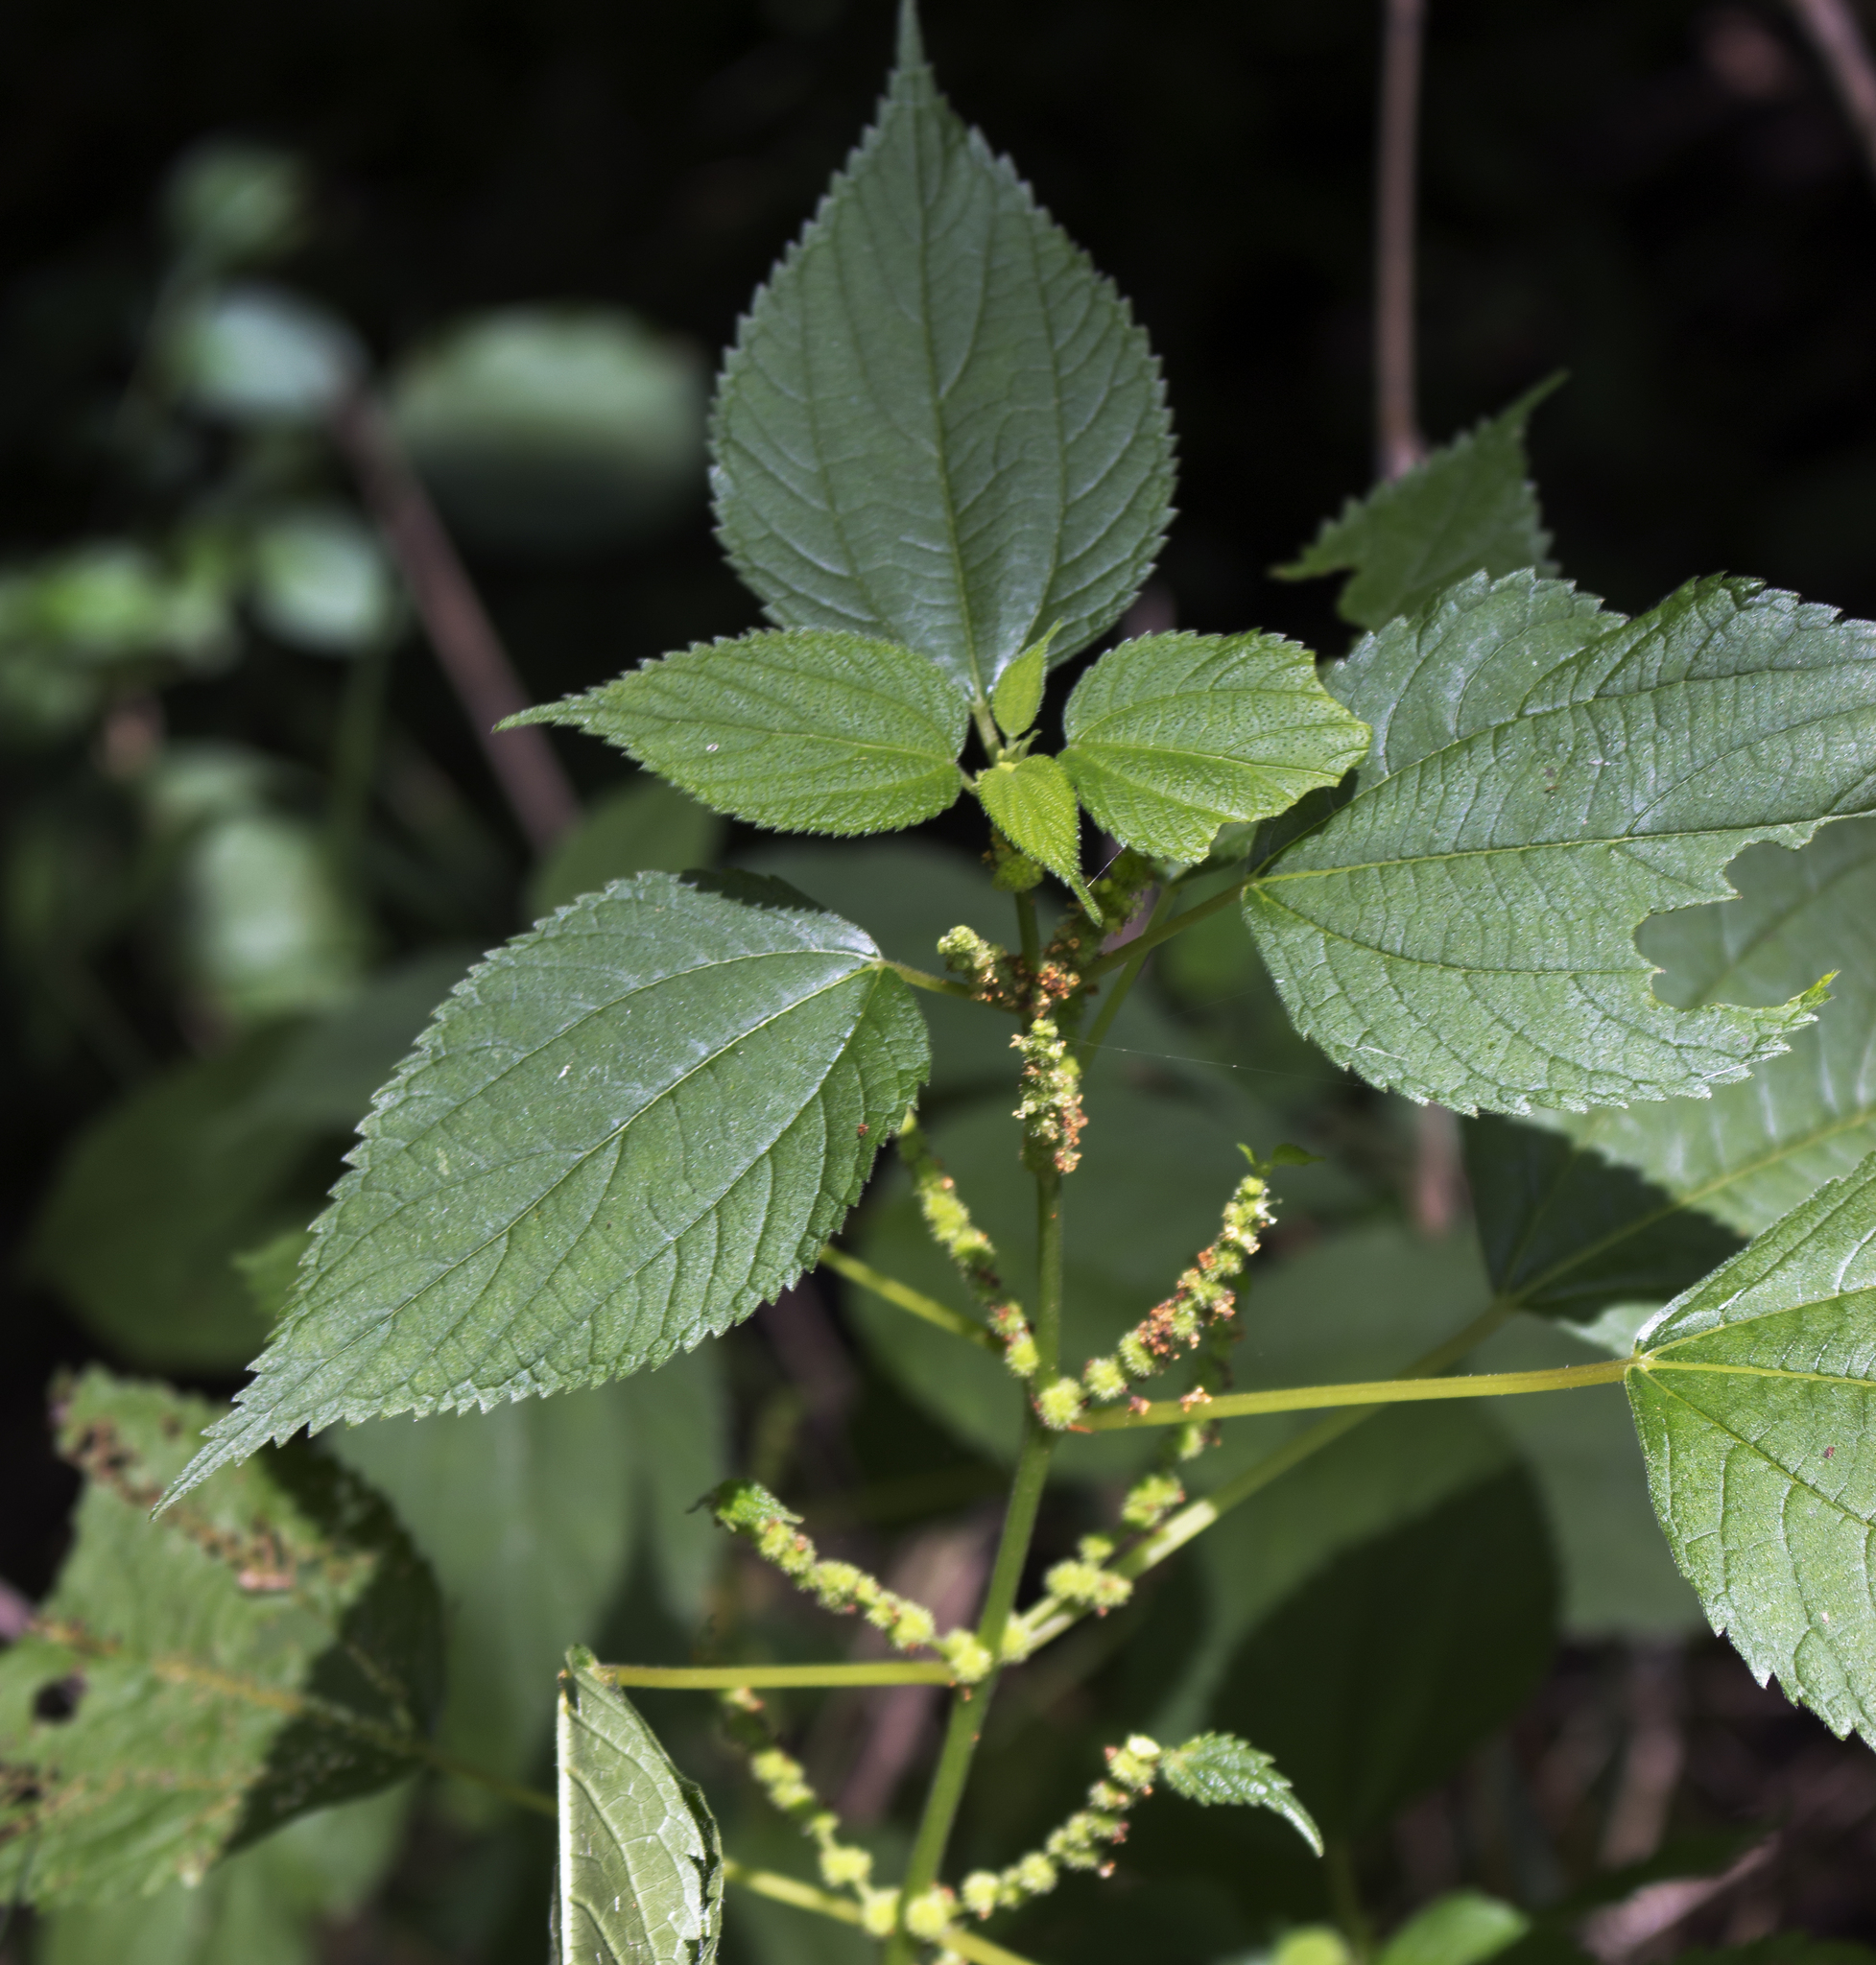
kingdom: Plantae
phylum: Tracheophyta
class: Magnoliopsida
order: Rosales
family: Urticaceae
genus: Boehmeria
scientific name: Boehmeria cylindrica
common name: Bog-hemp
